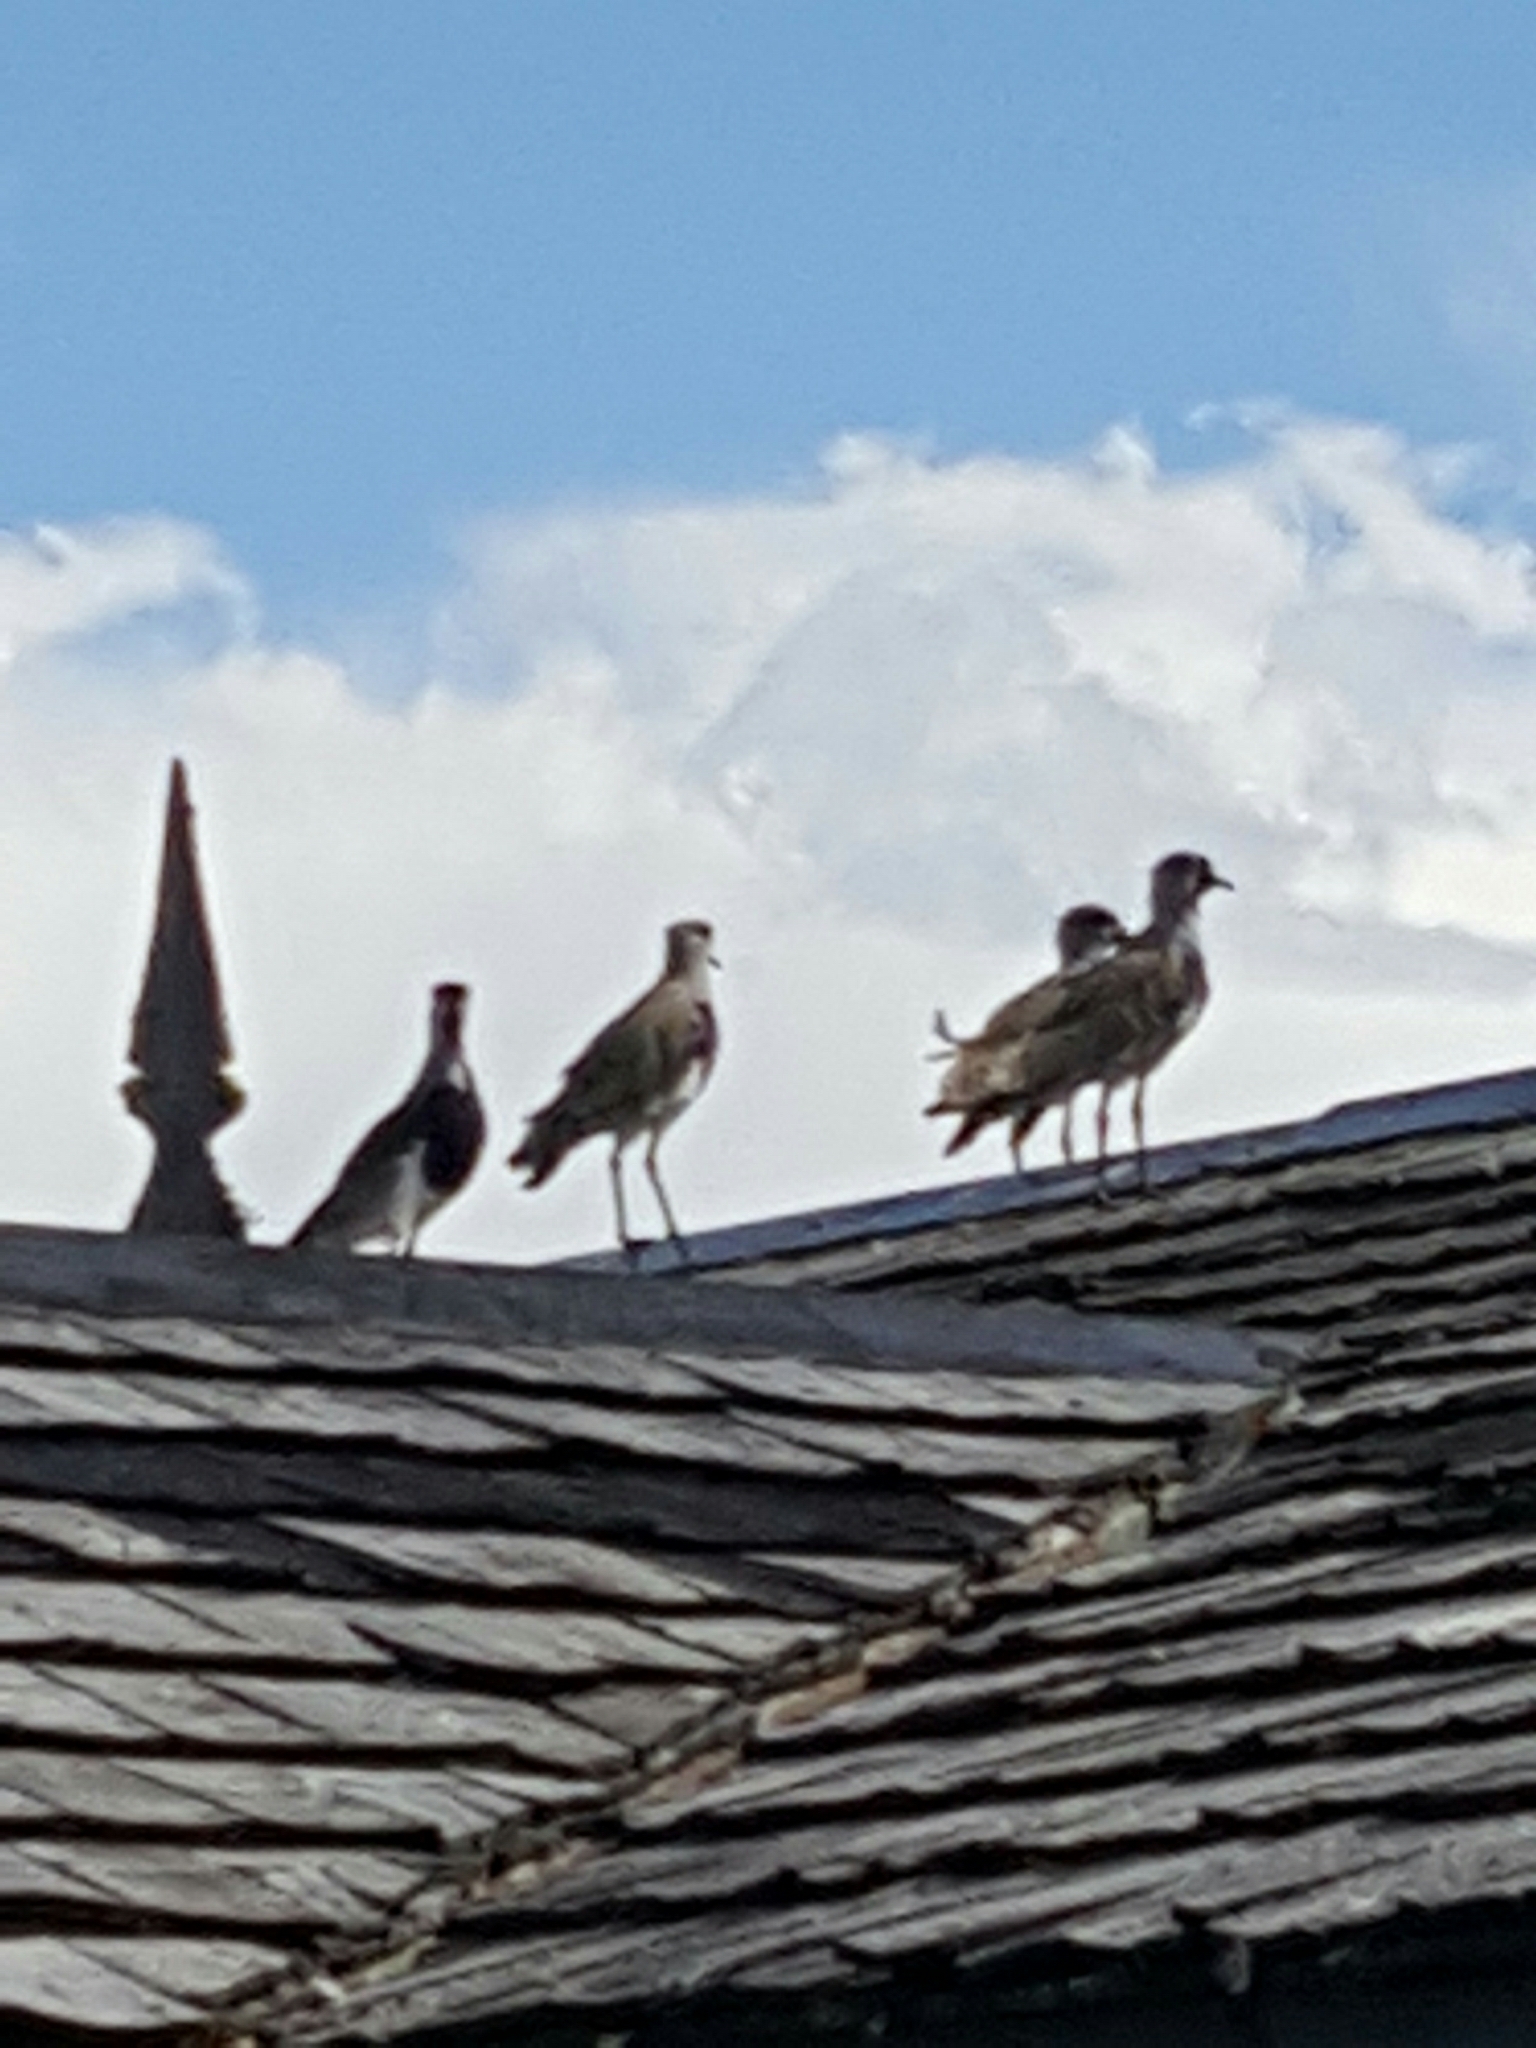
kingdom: Animalia
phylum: Chordata
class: Aves
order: Charadriiformes
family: Charadriidae
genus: Vanellus
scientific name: Vanellus chilensis
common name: Southern lapwing
